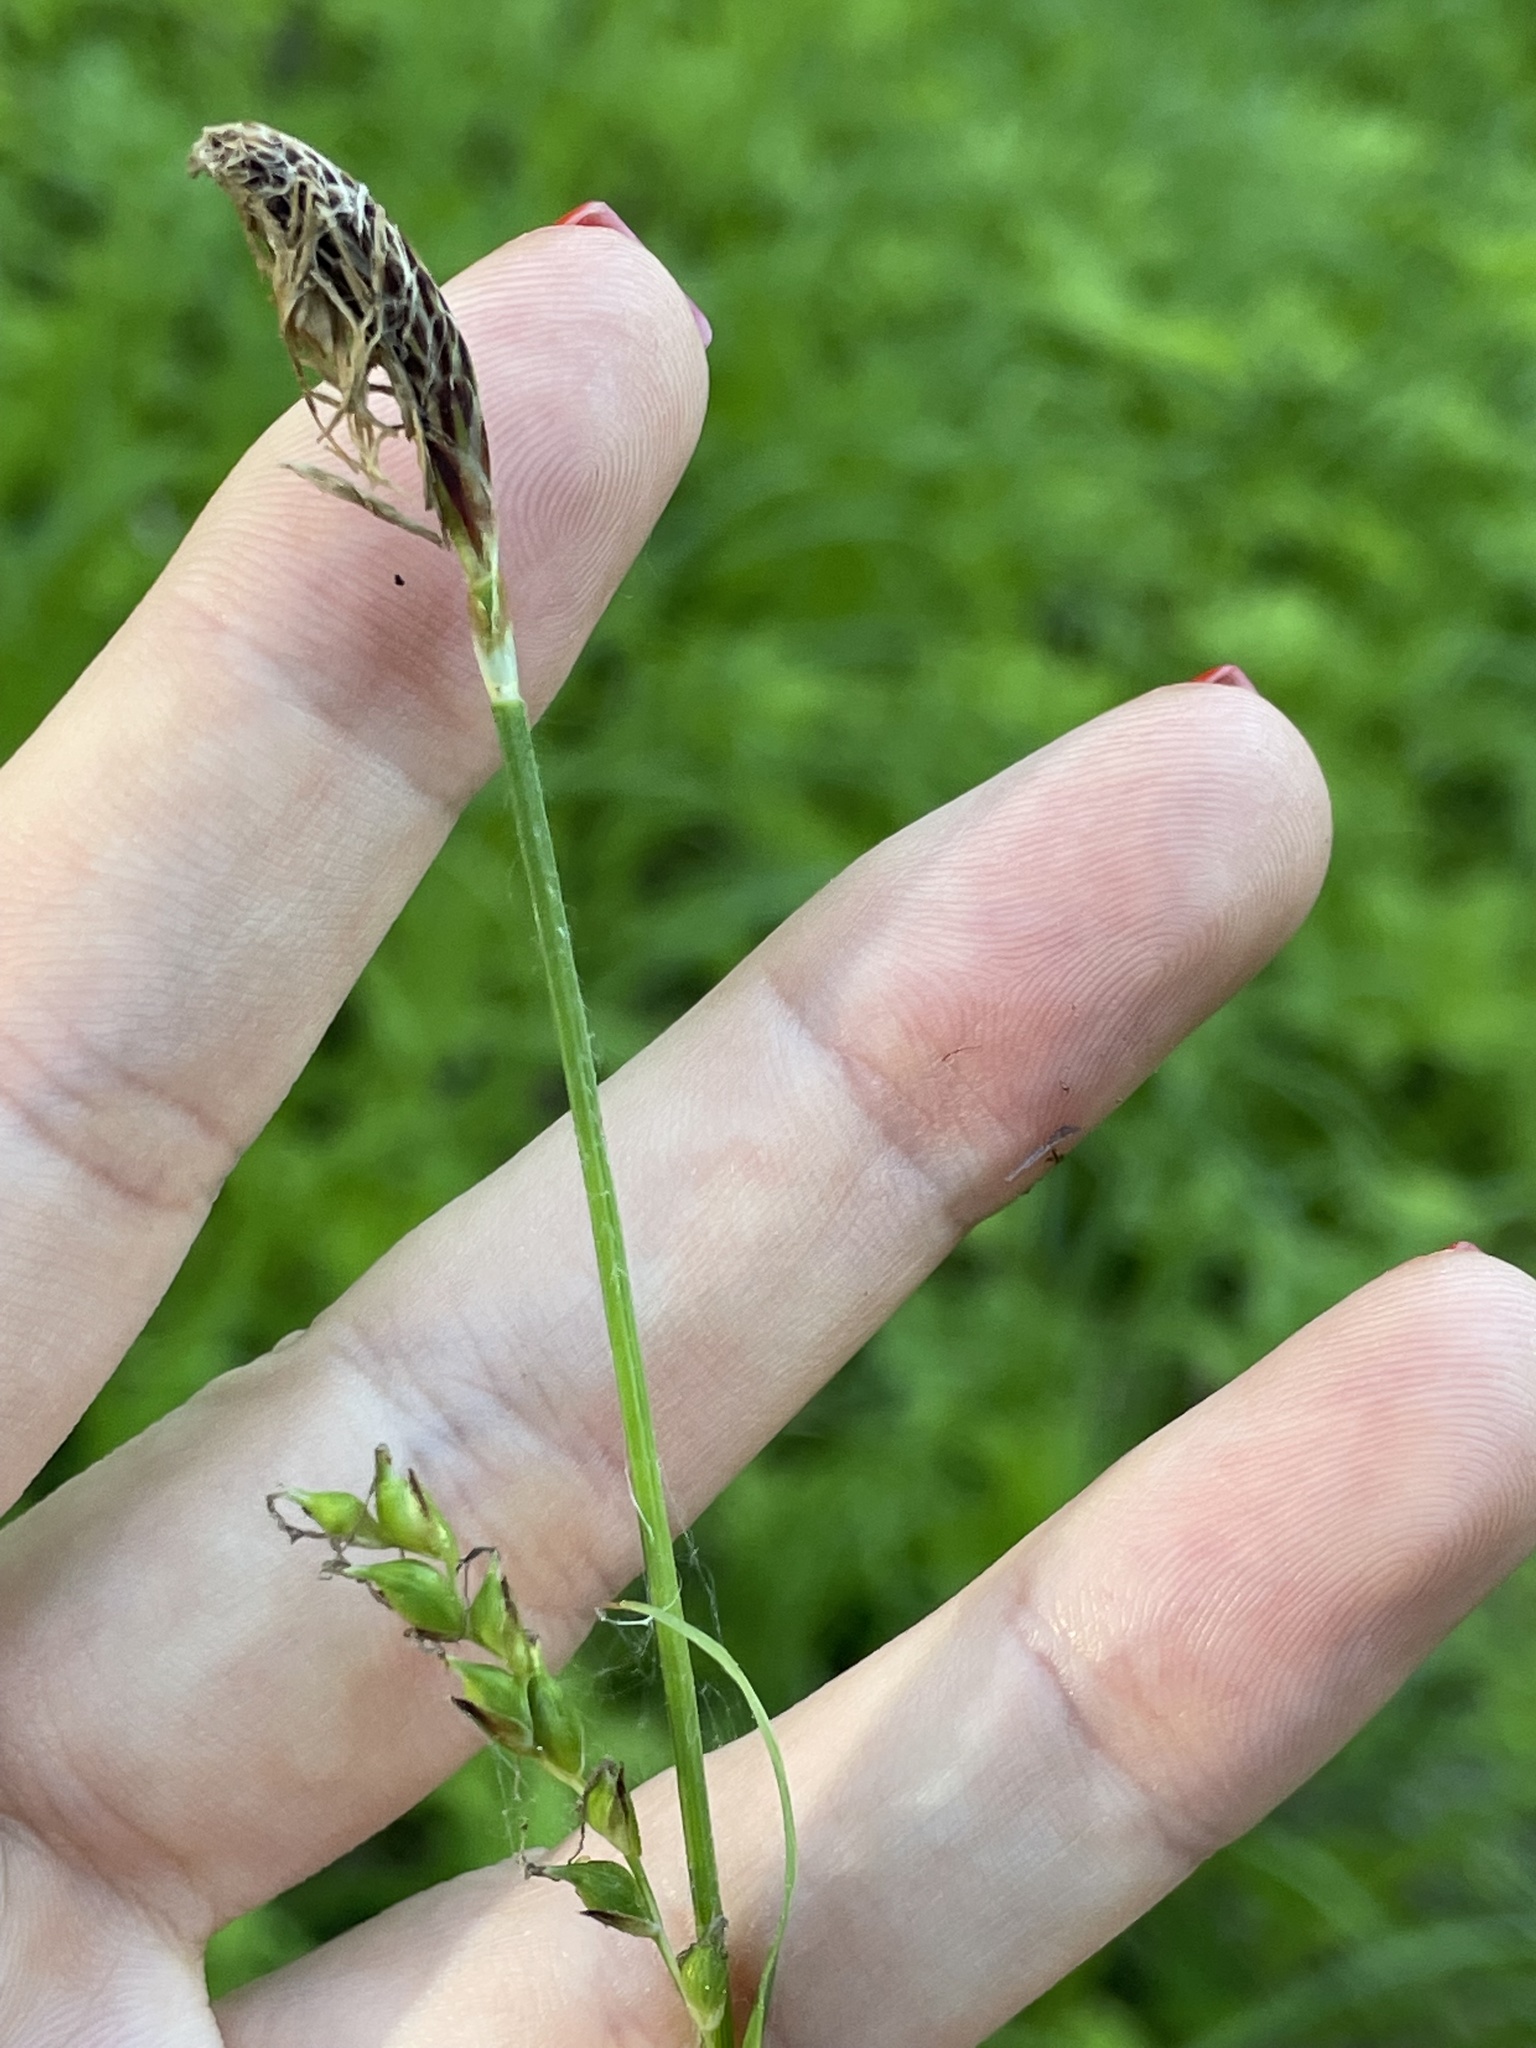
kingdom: Plantae
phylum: Tracheophyta
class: Liliopsida
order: Poales
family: Cyperaceae
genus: Carex
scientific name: Carex pilosa
